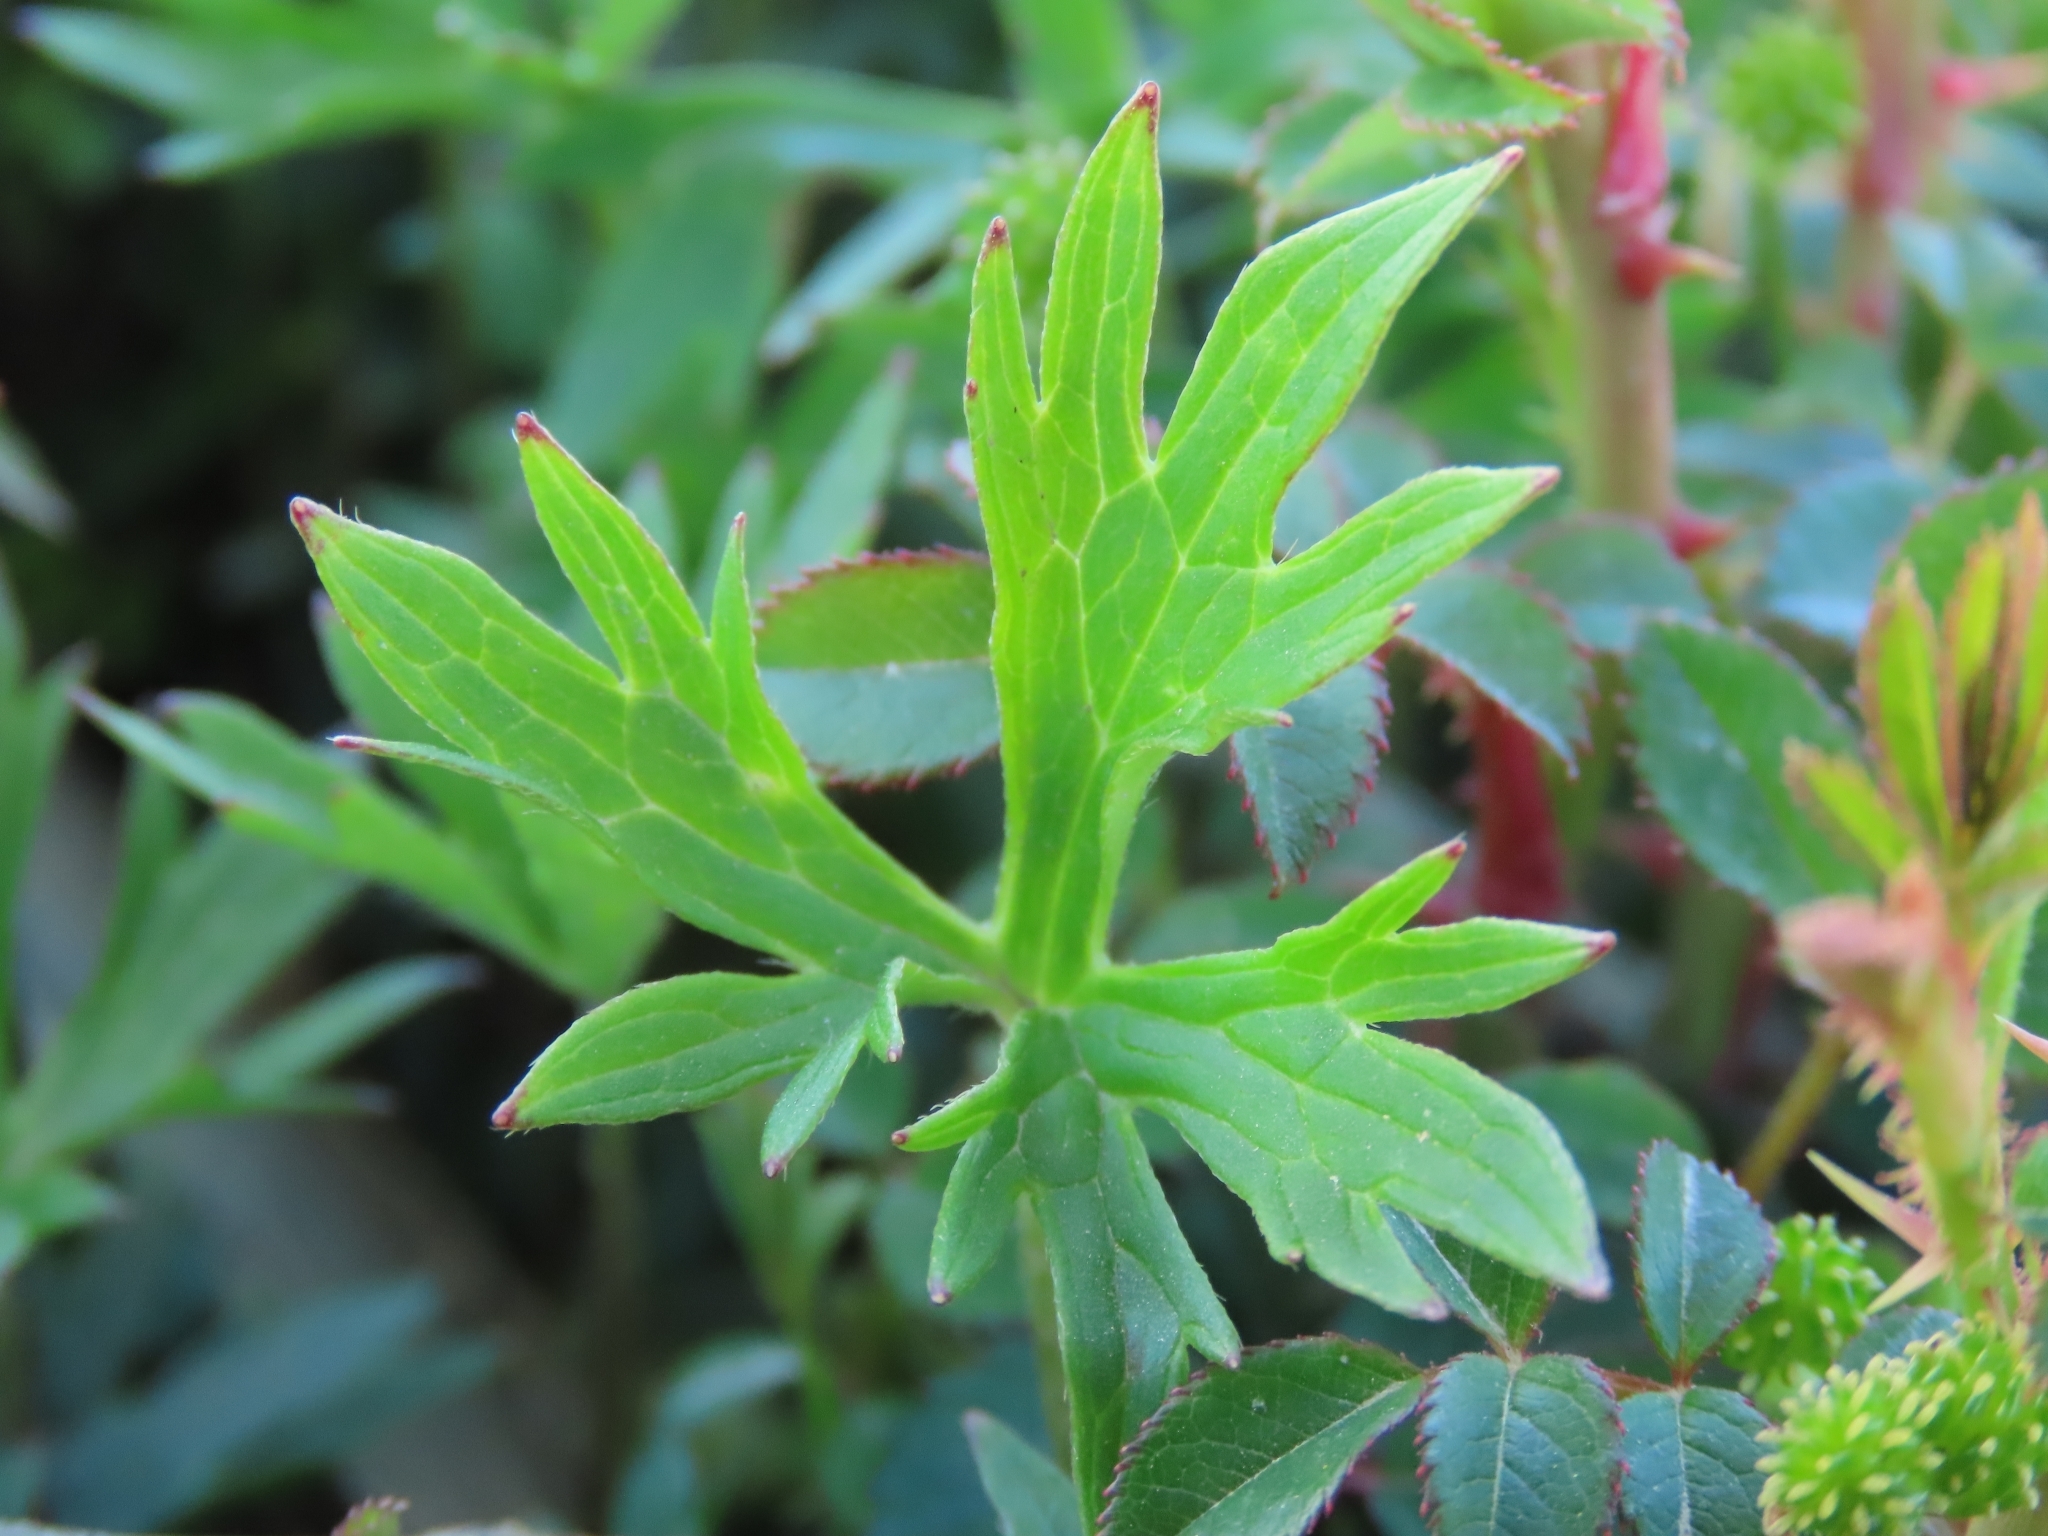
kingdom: Plantae
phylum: Tracheophyta
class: Magnoliopsida
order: Ranunculales
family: Ranunculaceae
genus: Ranunculus
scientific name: Ranunculus formosa-montanus
